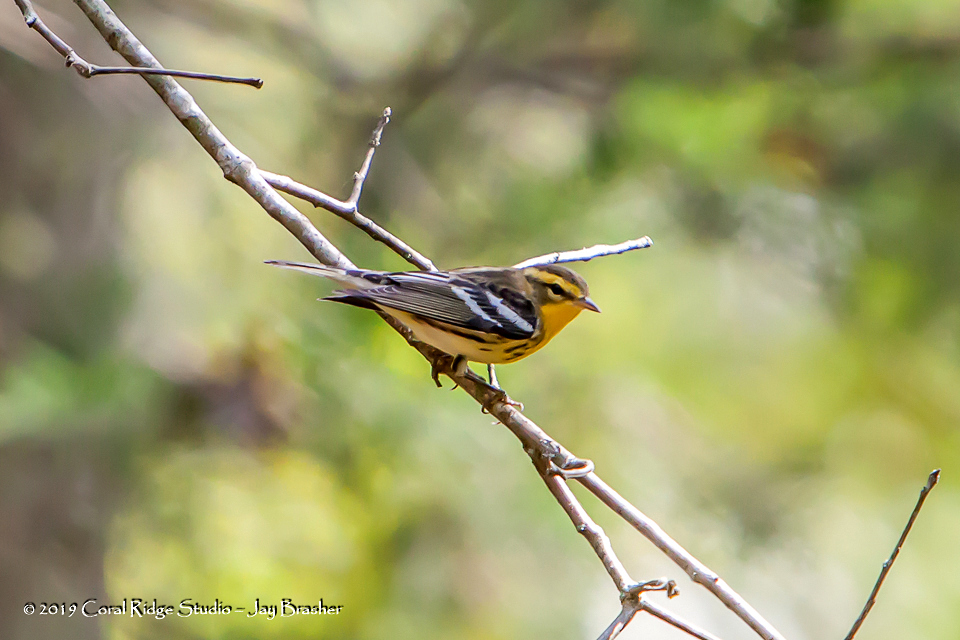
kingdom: Animalia
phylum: Chordata
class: Aves
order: Passeriformes
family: Parulidae
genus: Setophaga
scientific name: Setophaga fusca
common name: Blackburnian warbler
